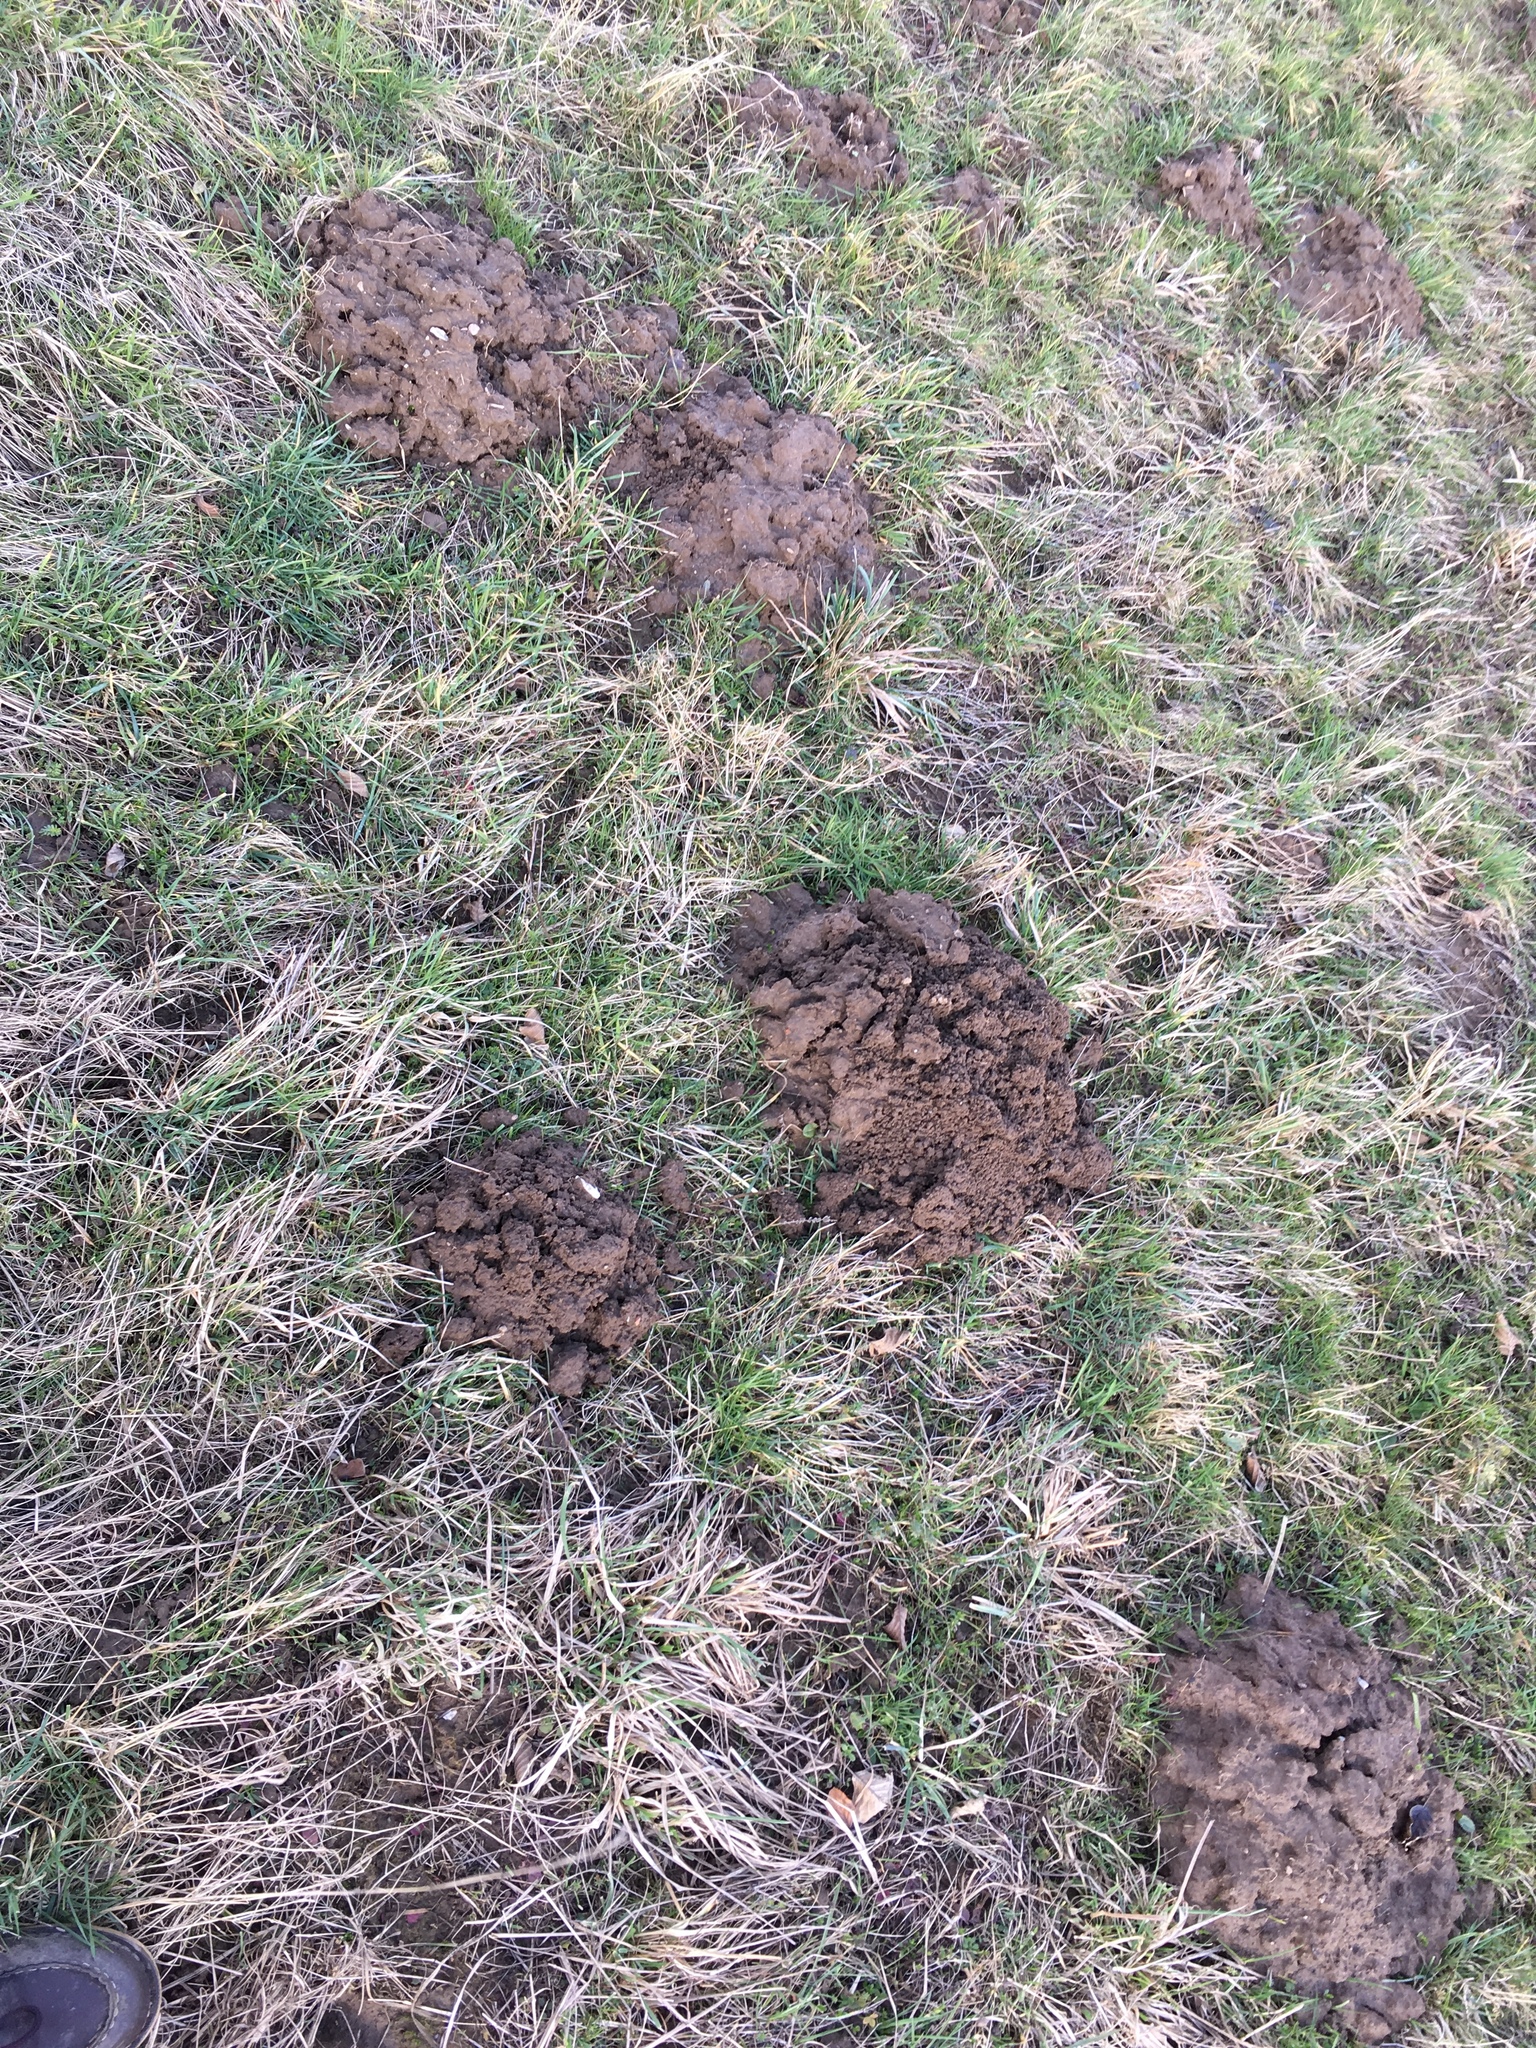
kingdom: Animalia
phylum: Chordata
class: Mammalia
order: Soricomorpha
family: Talpidae
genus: Talpa
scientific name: Talpa europaea
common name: European mole
